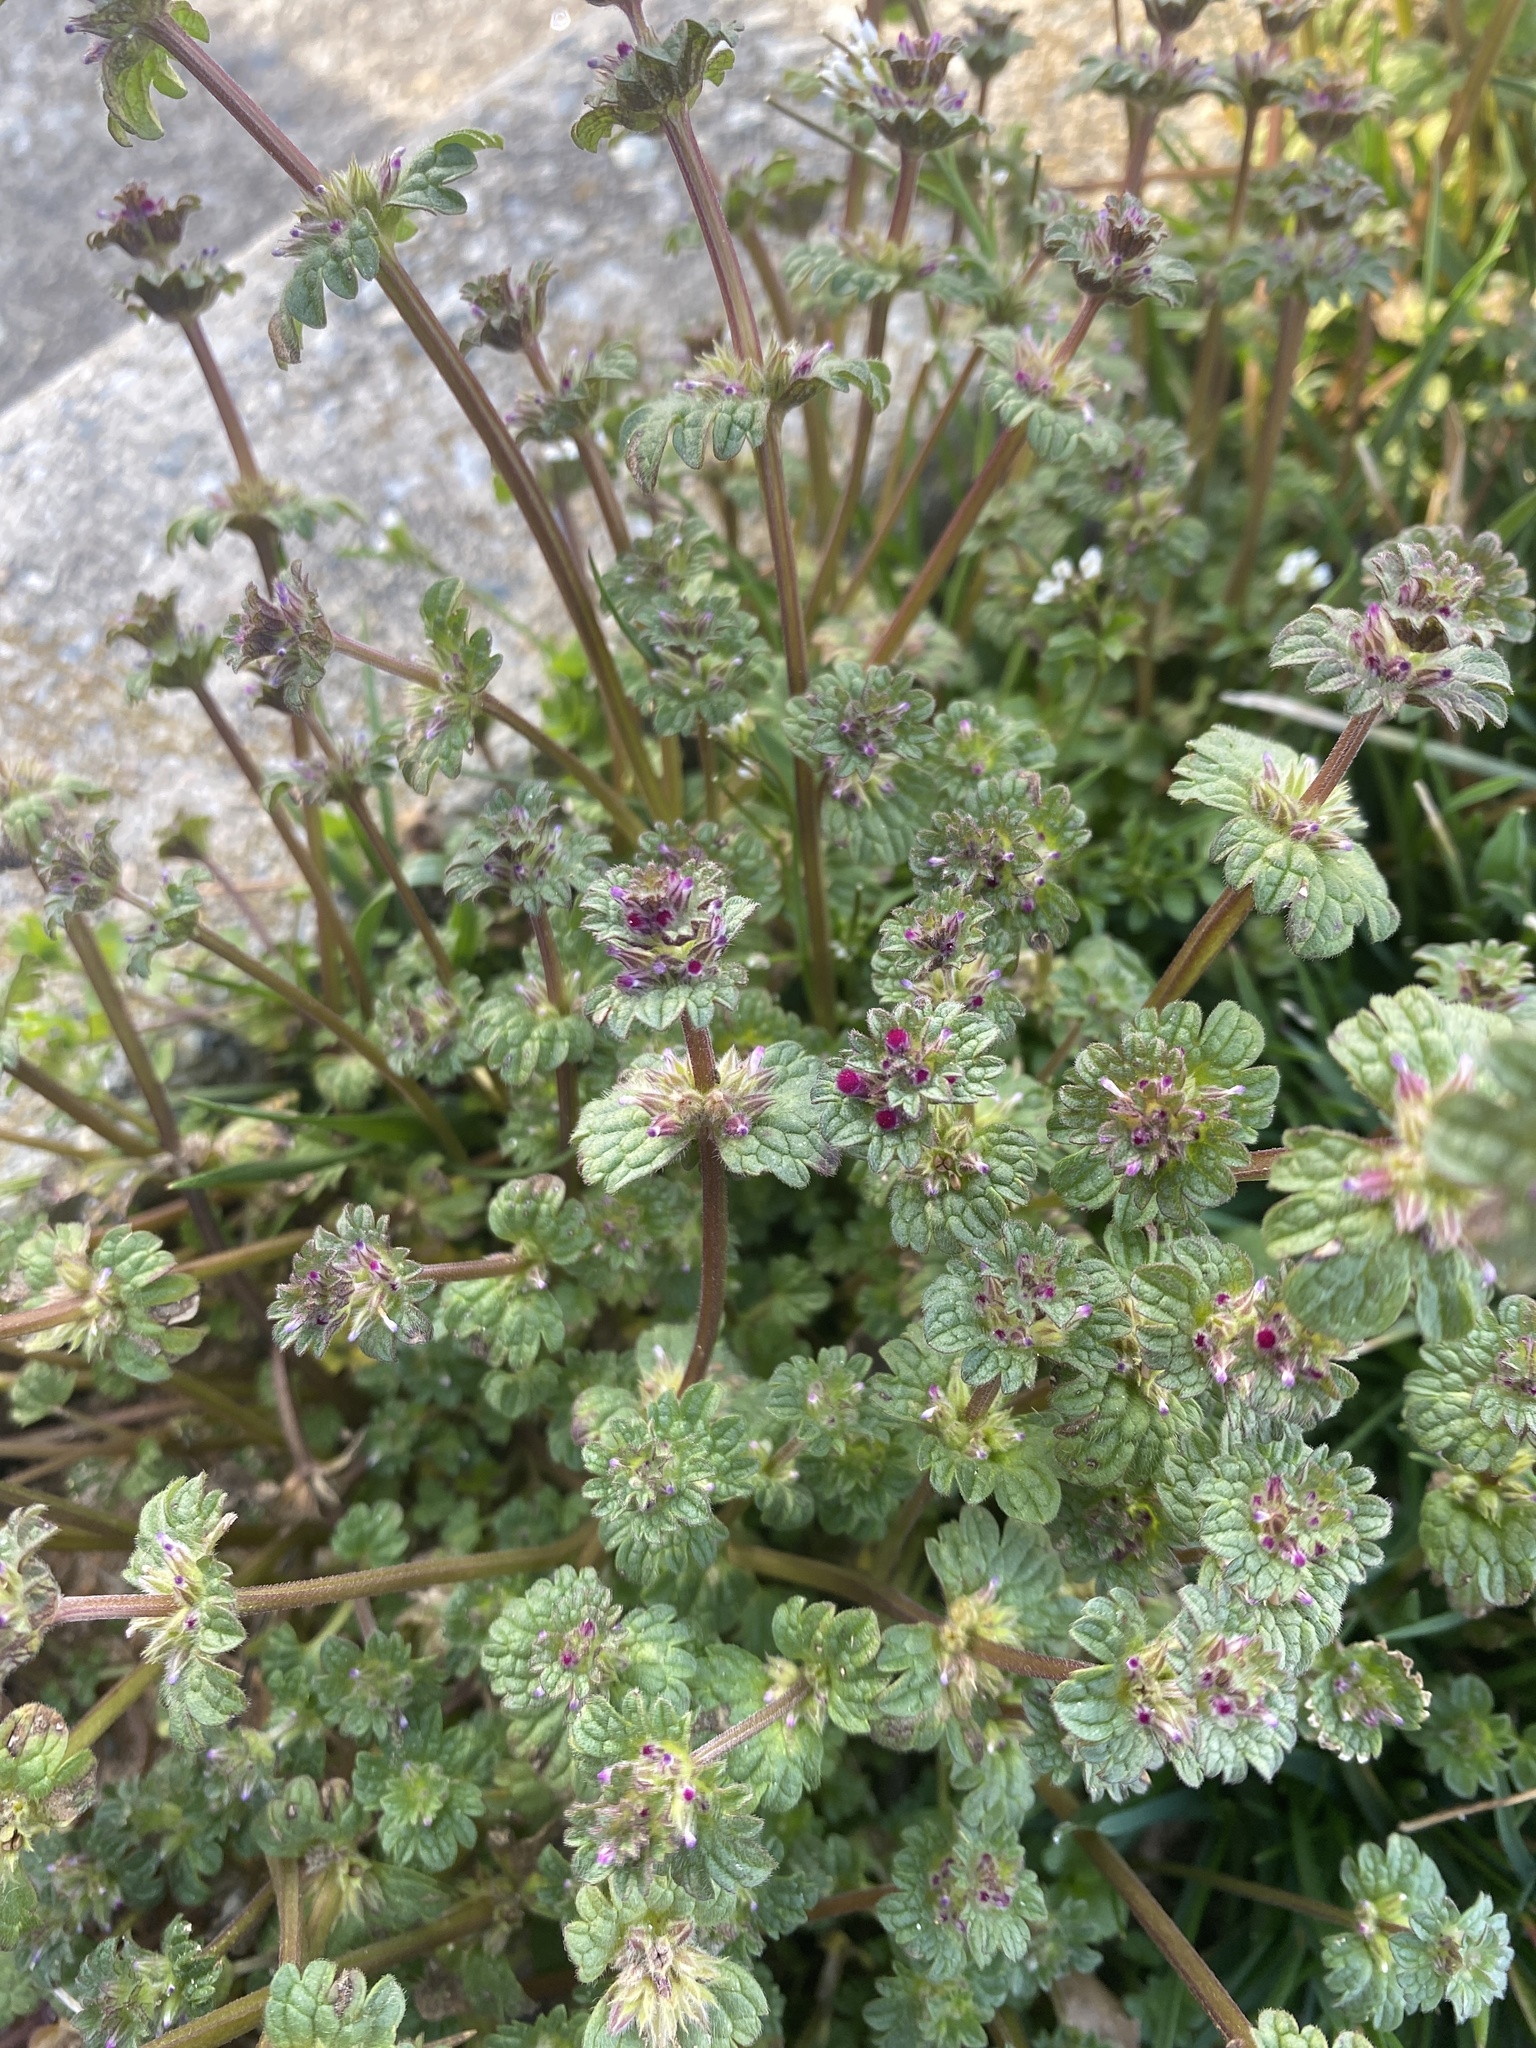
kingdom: Plantae
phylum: Tracheophyta
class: Magnoliopsida
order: Lamiales
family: Lamiaceae
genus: Lamium
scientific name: Lamium amplexicaule
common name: Henbit dead-nettle
